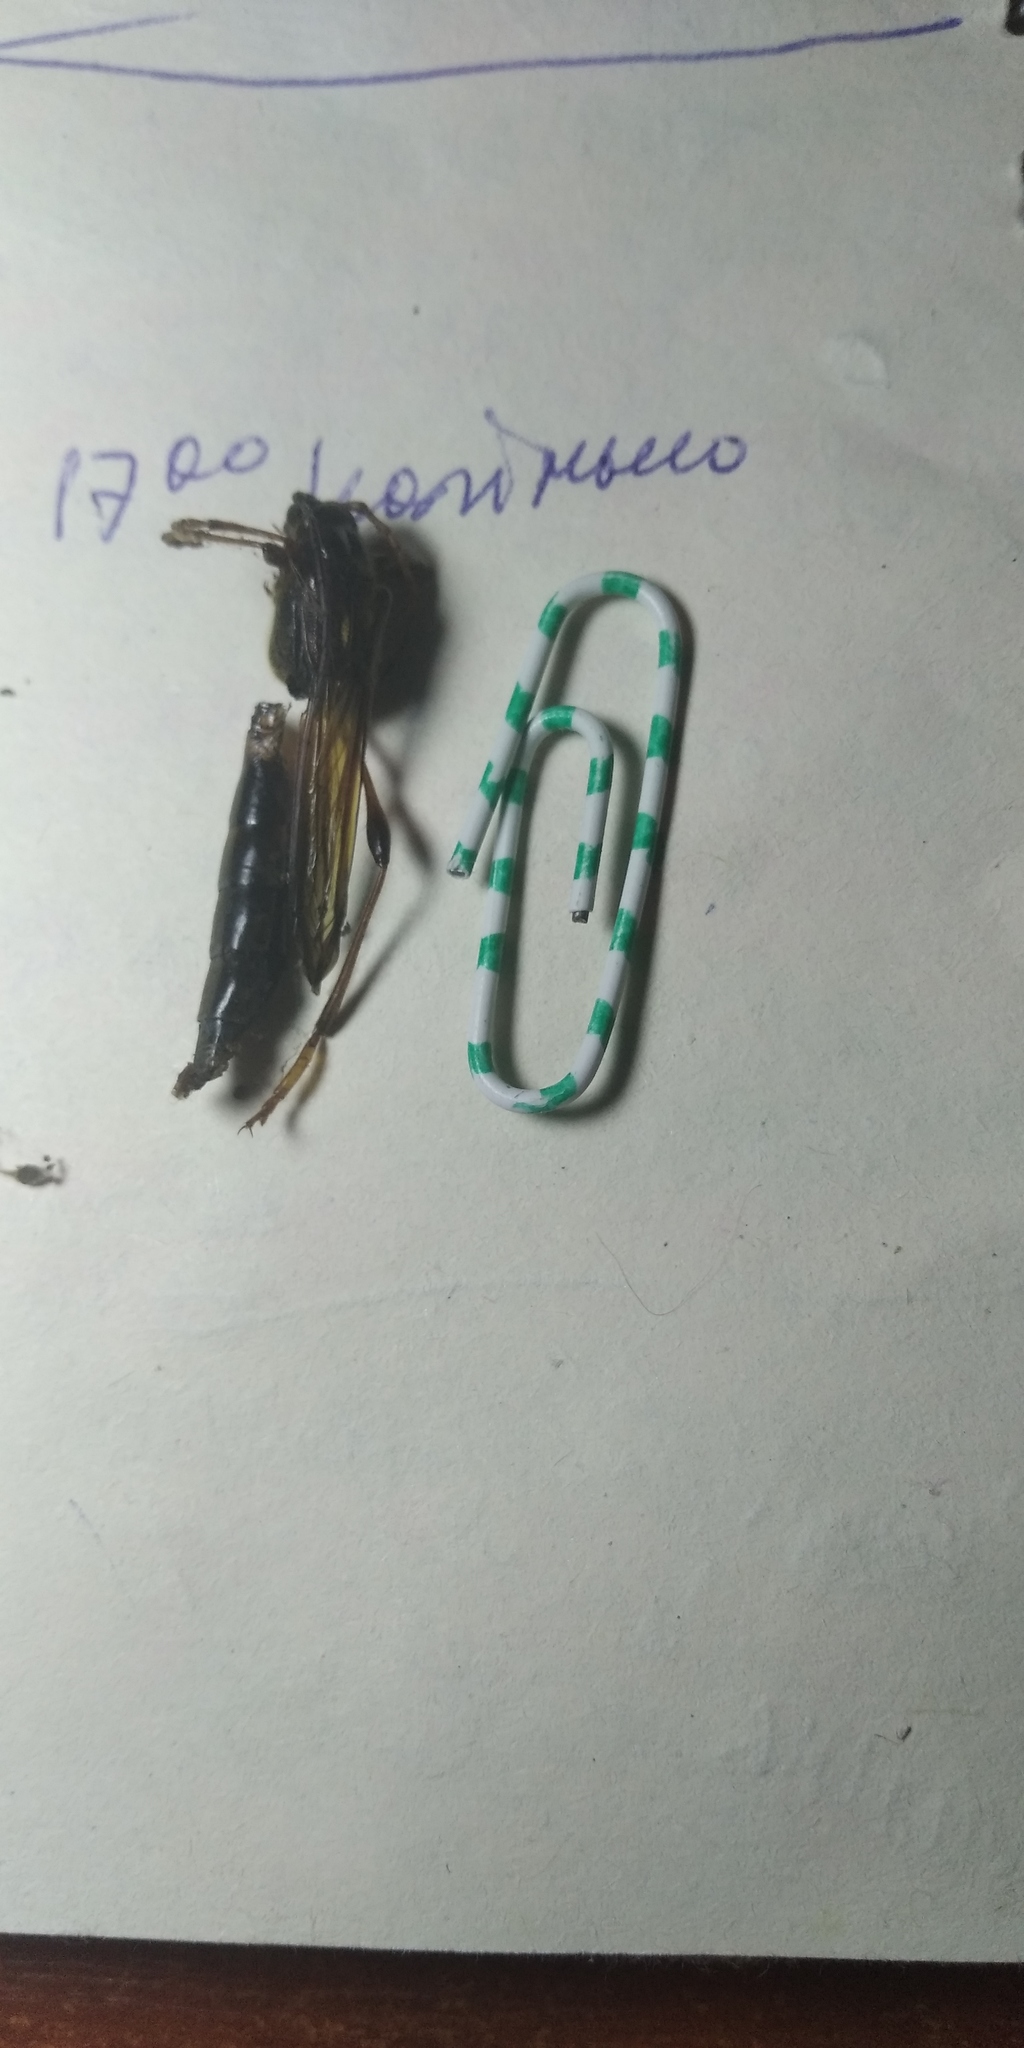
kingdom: Animalia
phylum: Arthropoda
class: Insecta
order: Coleoptera
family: Cerambycidae
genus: Necydalis
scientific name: Necydalis major
